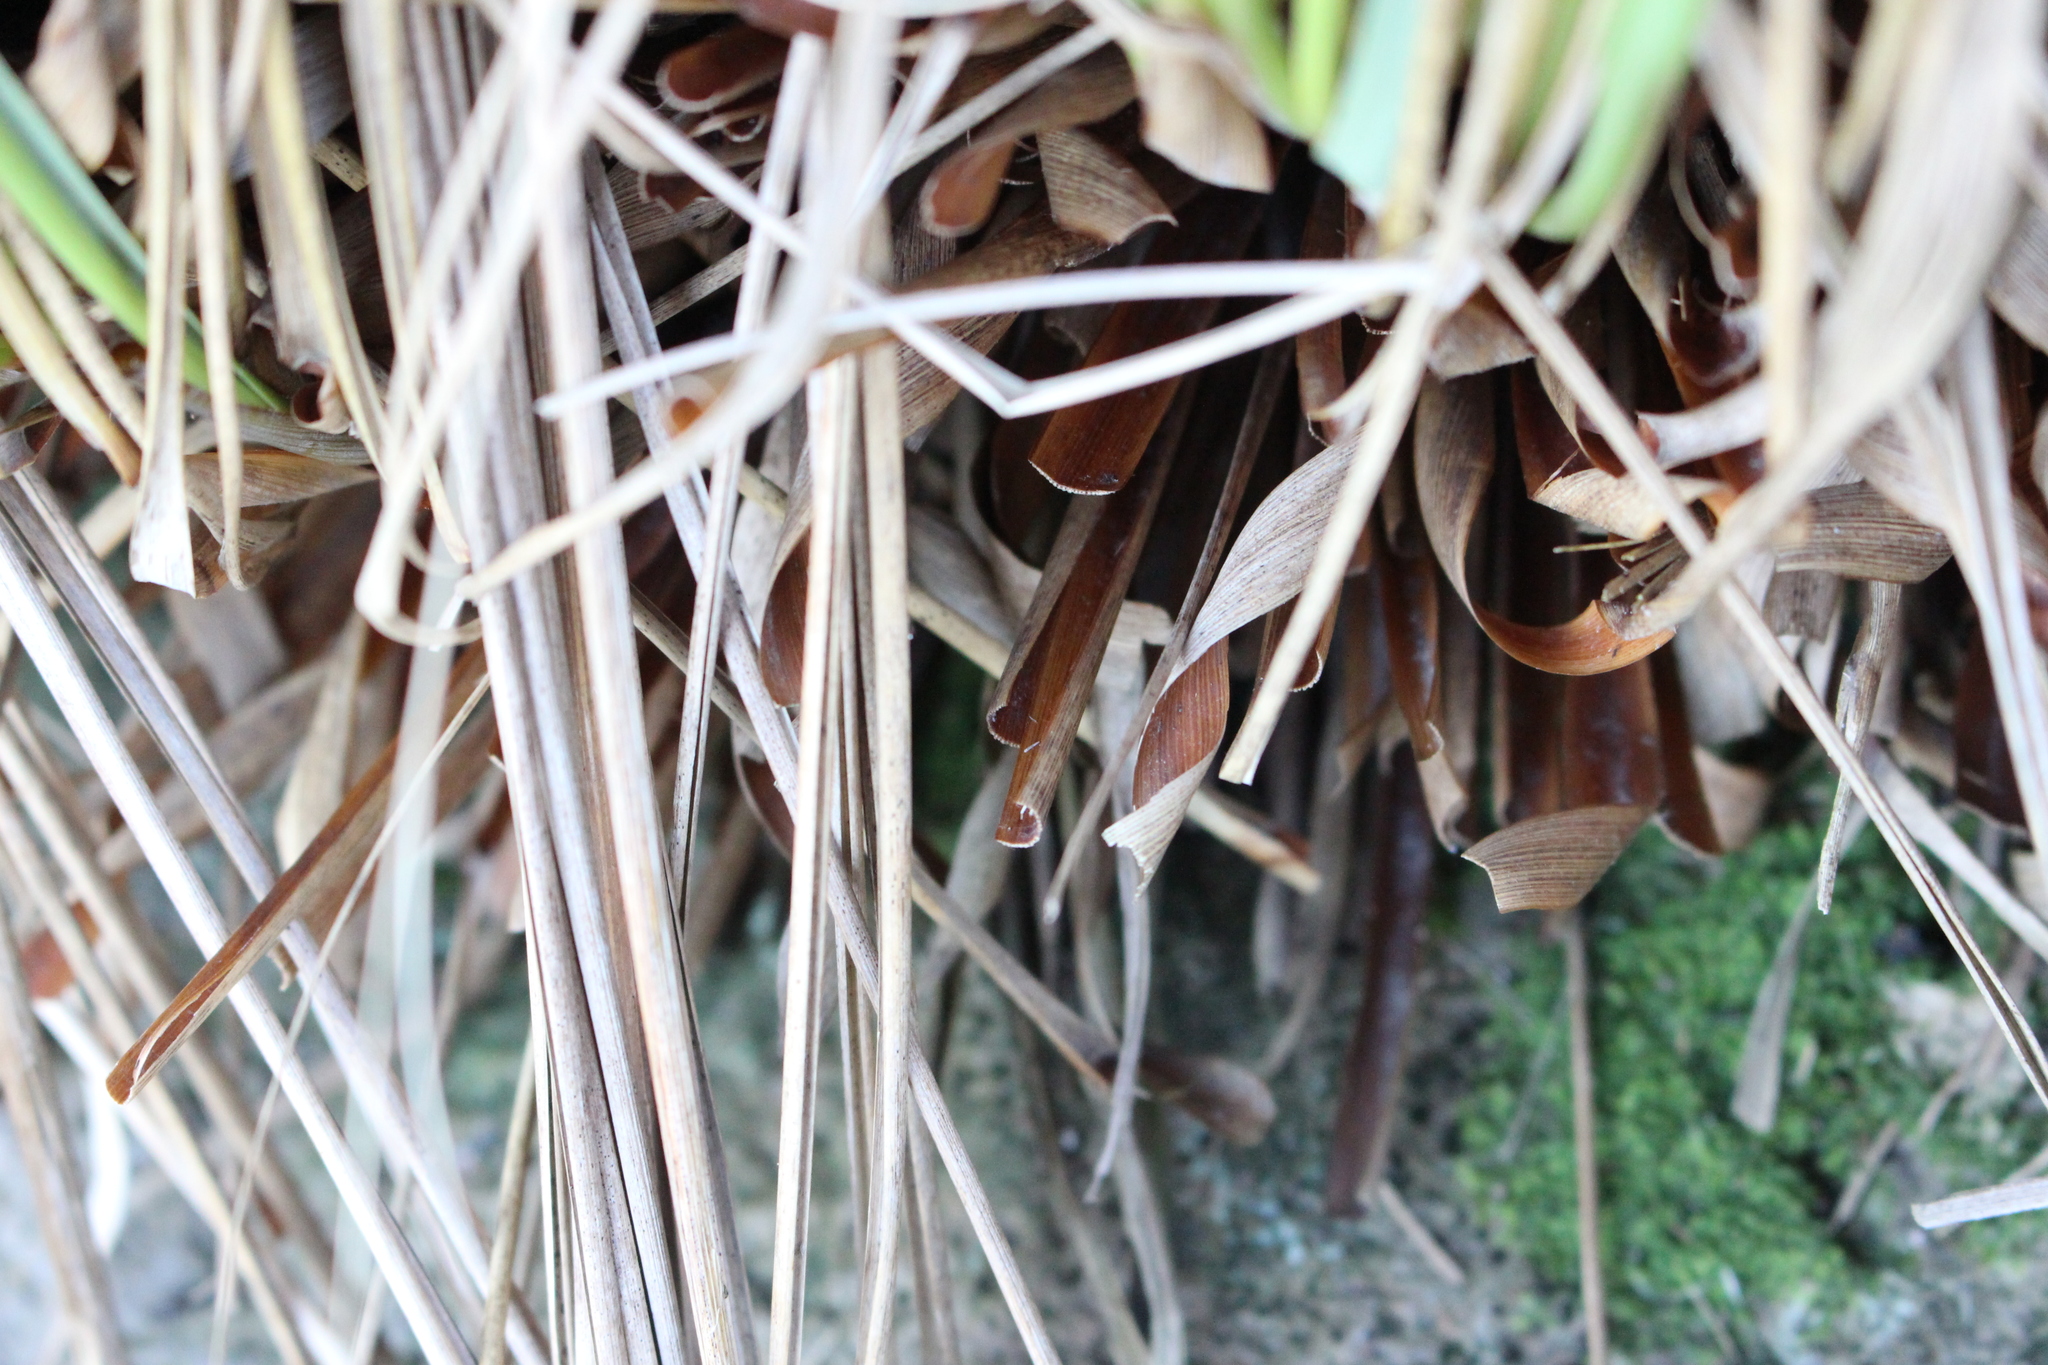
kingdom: Plantae
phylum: Tracheophyta
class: Liliopsida
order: Poales
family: Poaceae
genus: Chionochloa
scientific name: Chionochloa rigida
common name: Narrow leaved snow tussock
